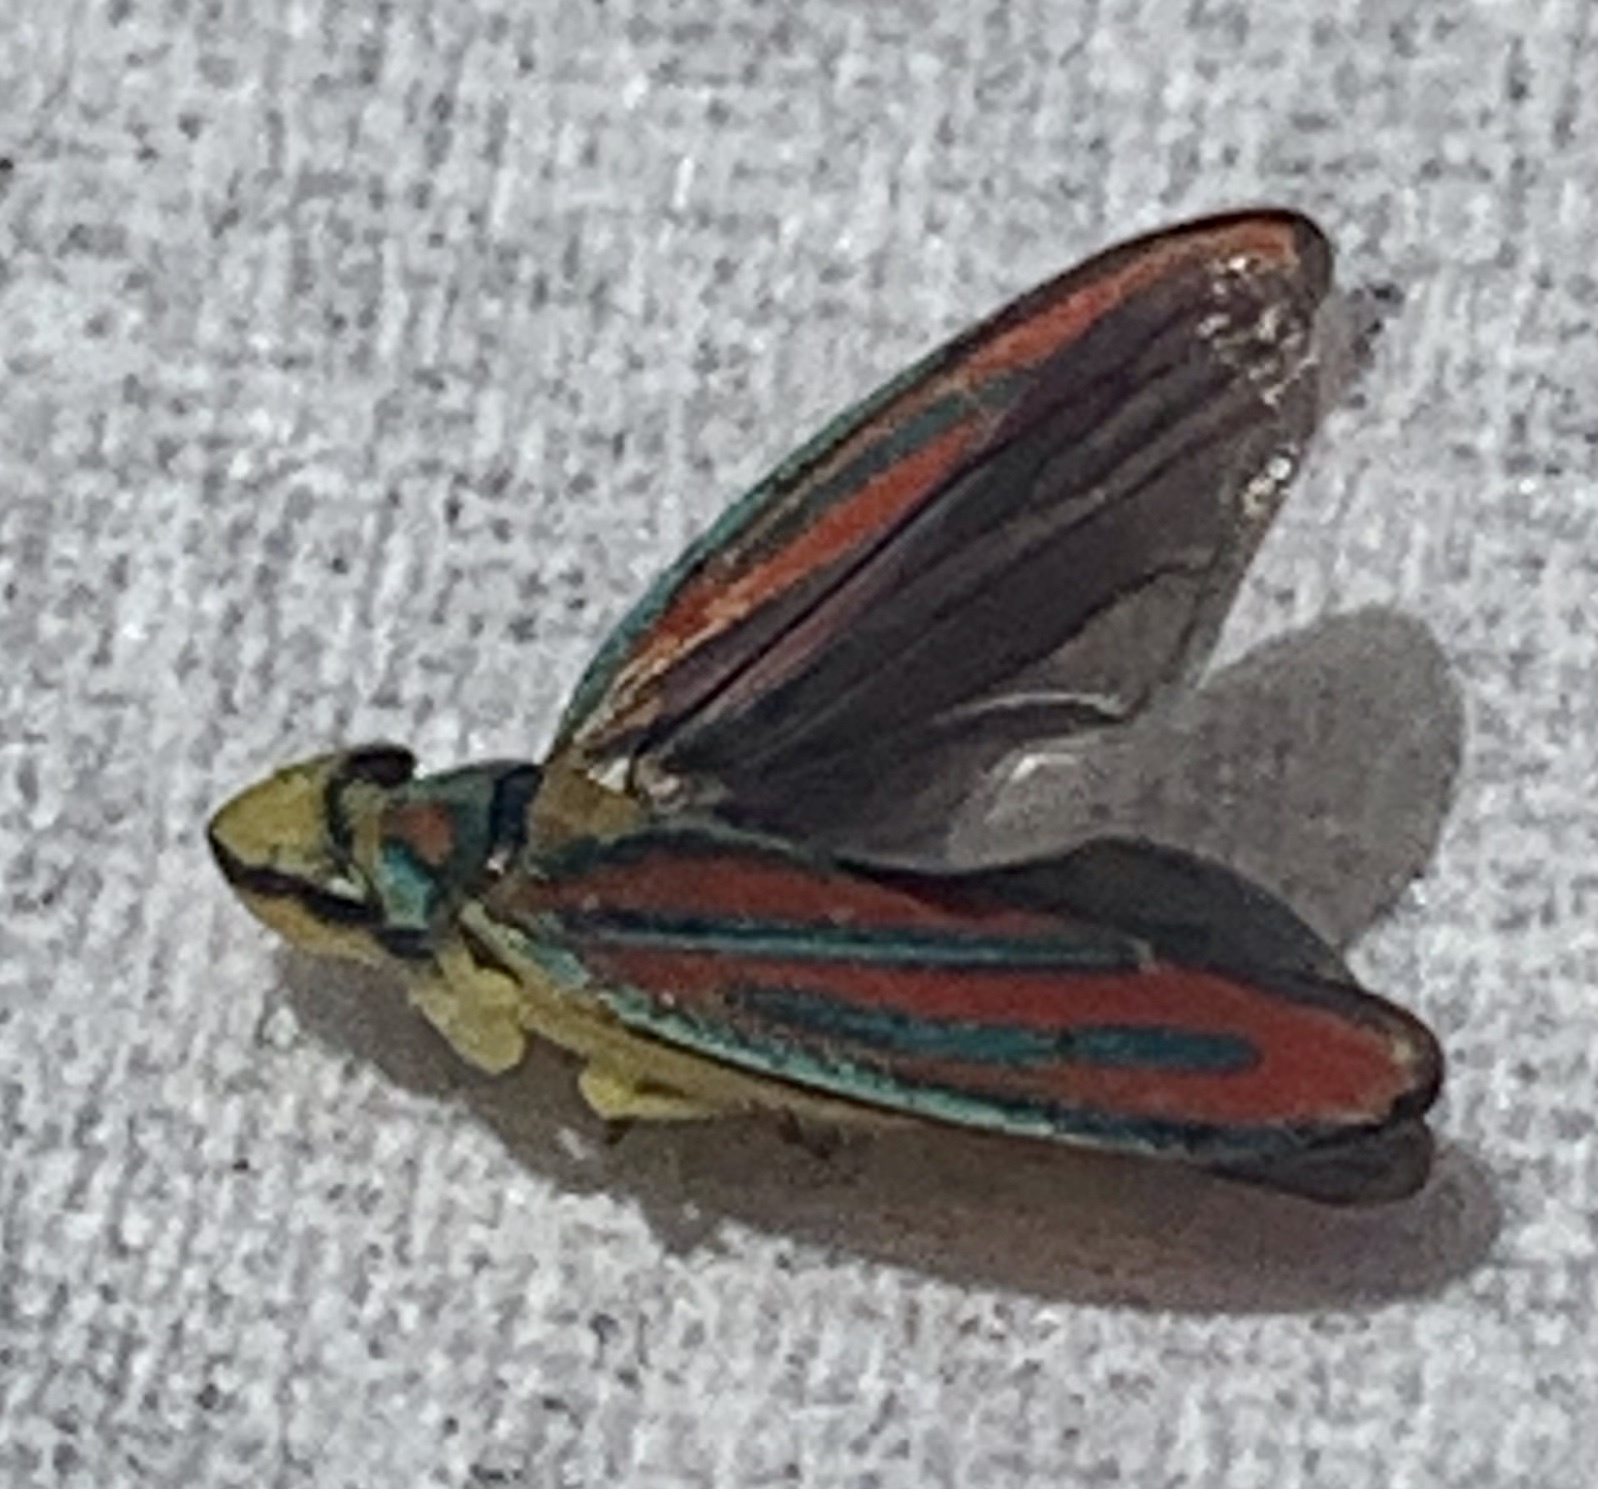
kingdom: Animalia
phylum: Arthropoda
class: Insecta
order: Hemiptera
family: Cicadellidae
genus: Graphocephala
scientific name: Graphocephala coccinea
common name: Candy-striped leafhopper
